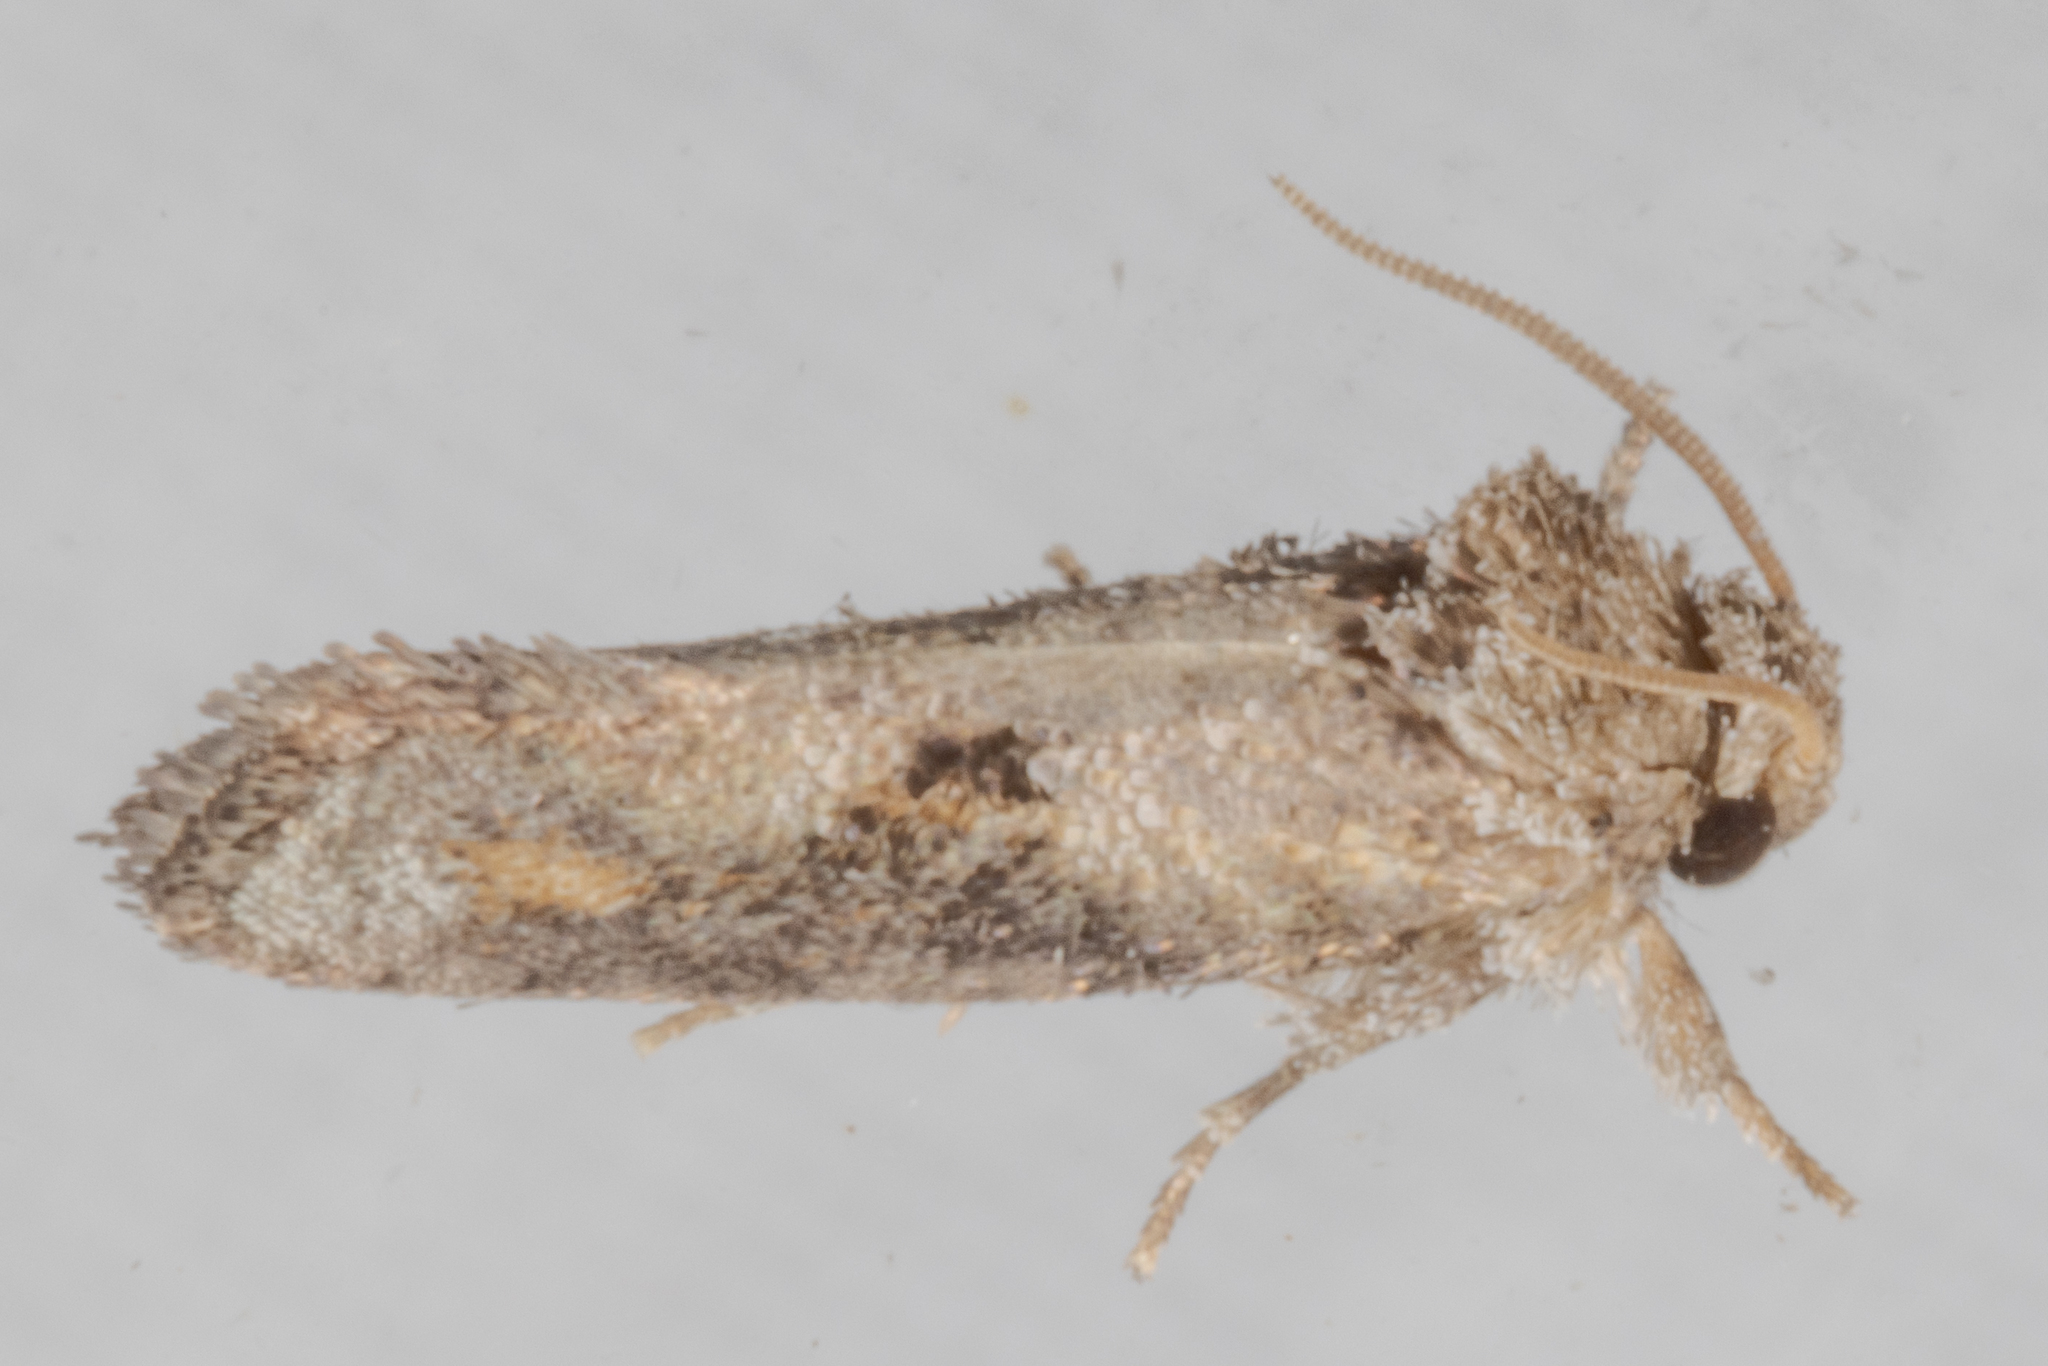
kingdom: Animalia
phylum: Arthropoda
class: Insecta
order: Lepidoptera
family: Tineidae
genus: Acrolophus
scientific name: Acrolophus piger
